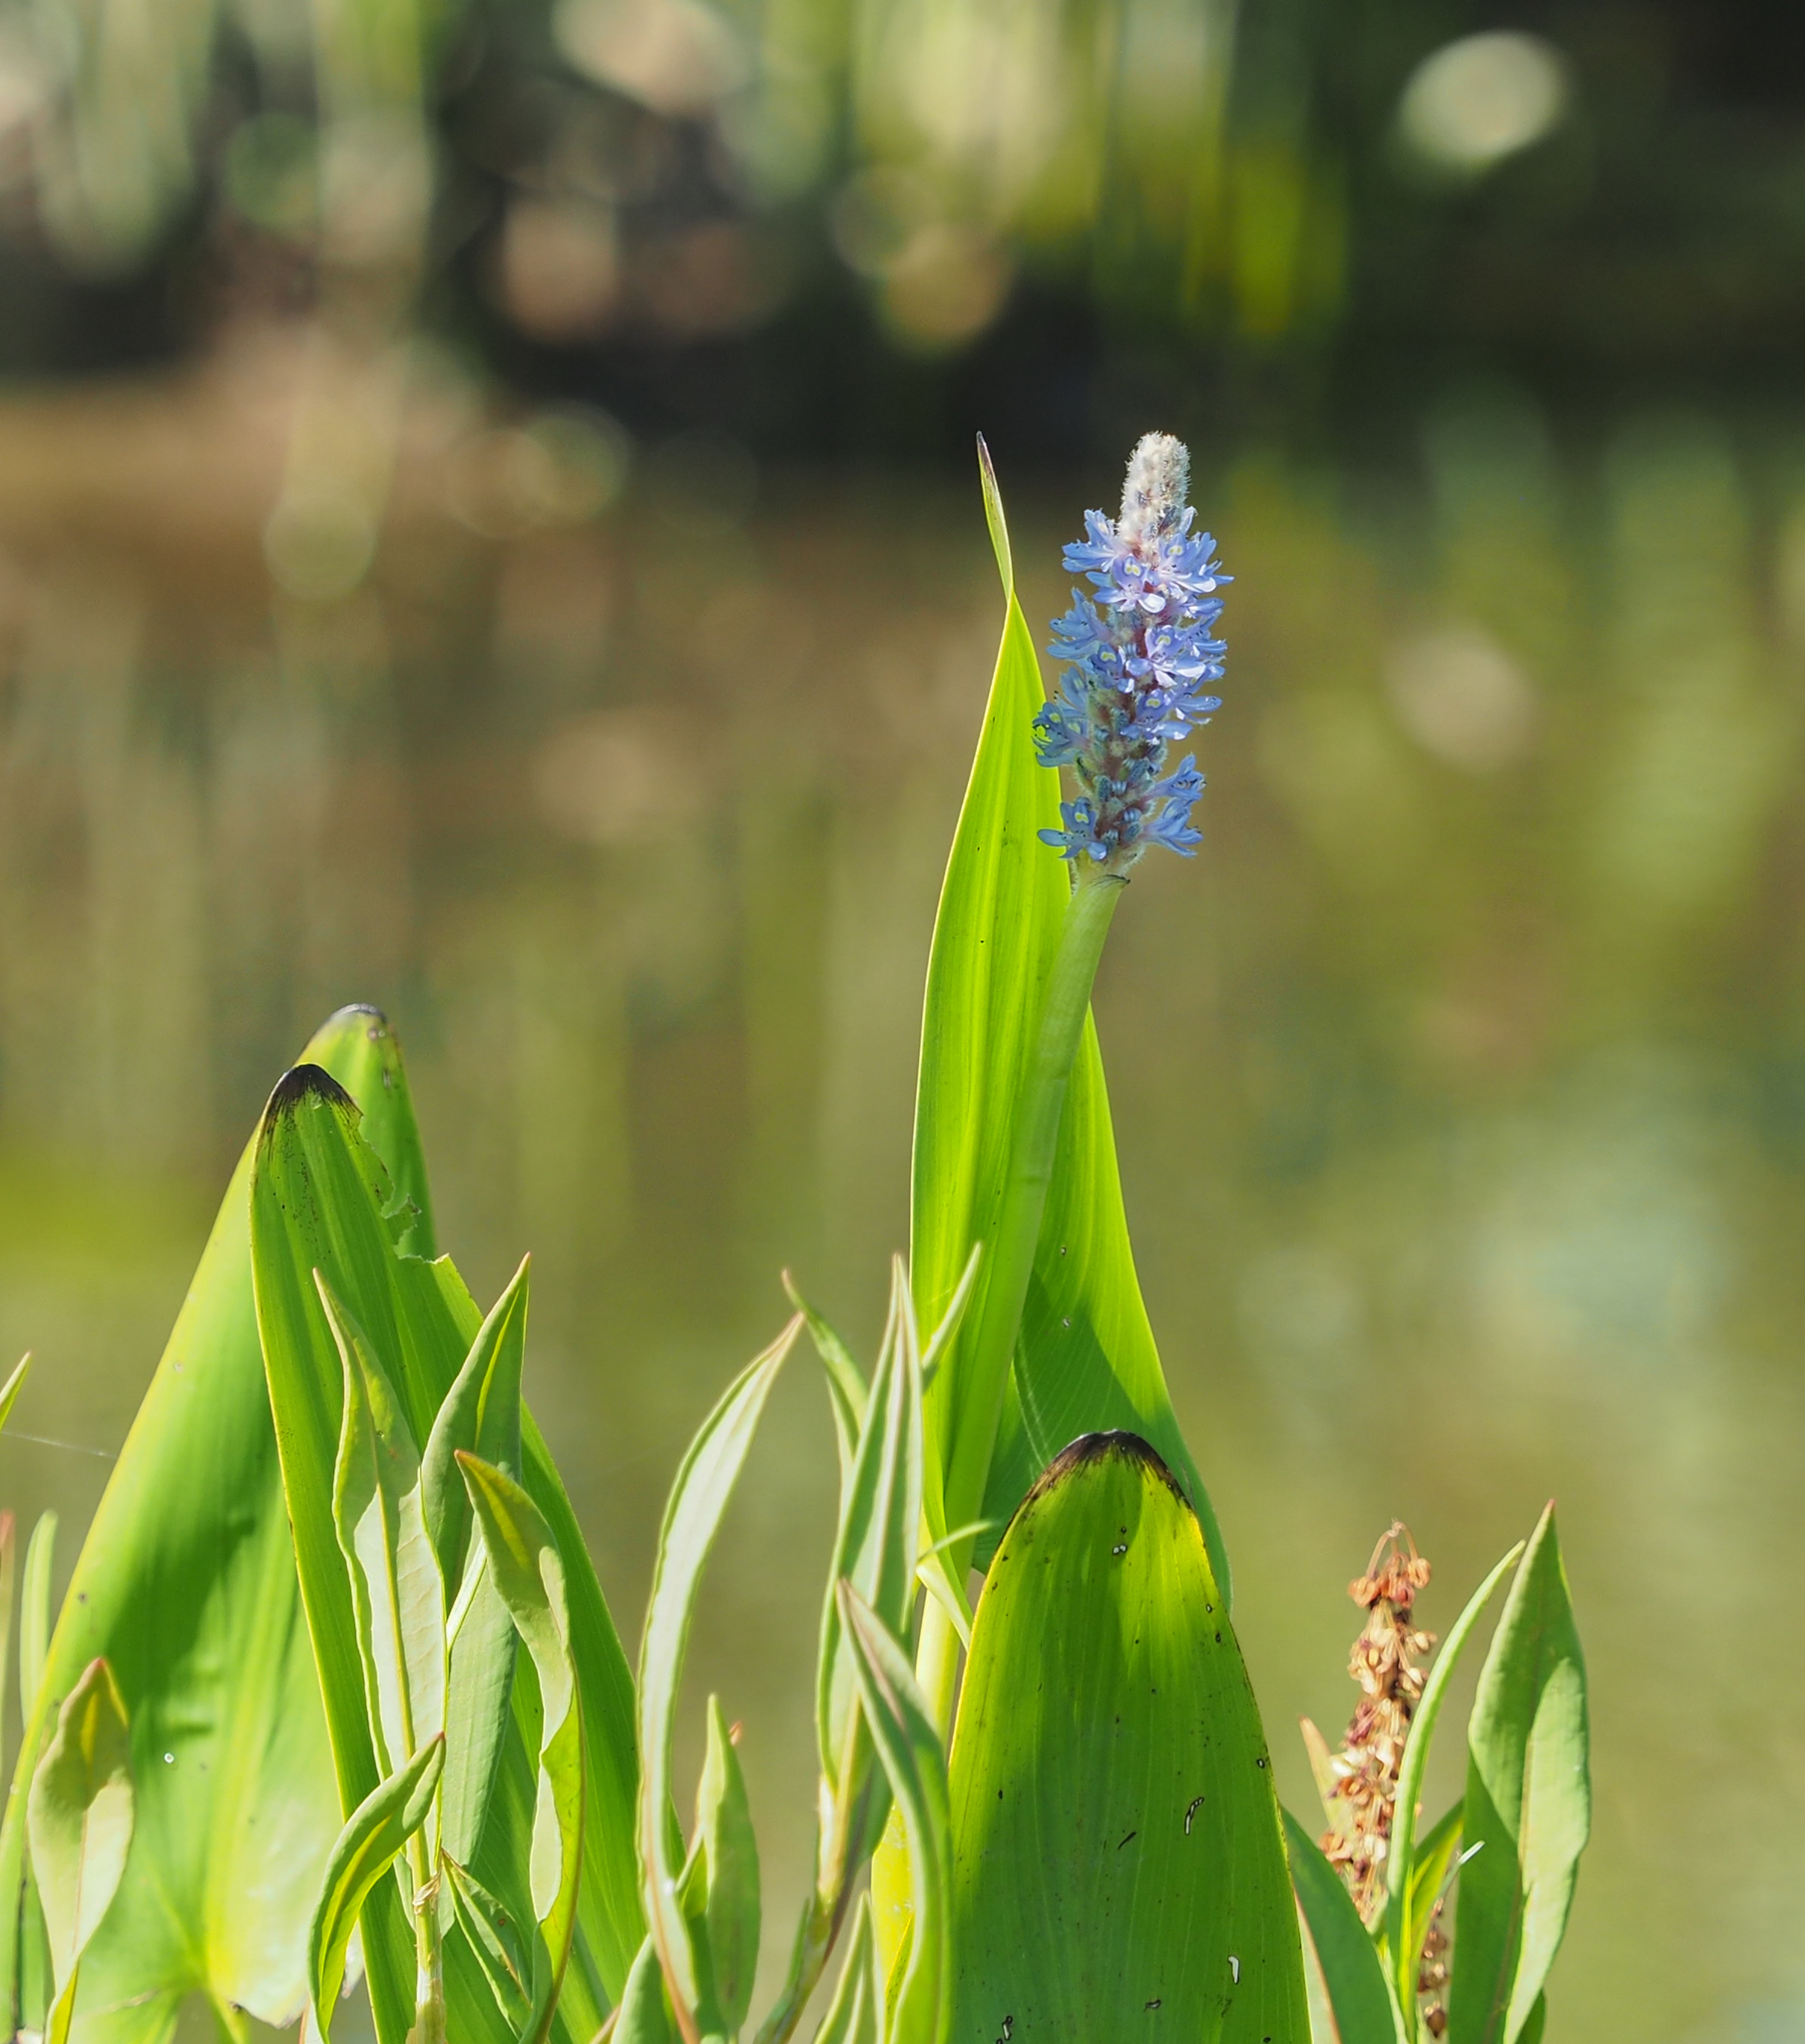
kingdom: Plantae
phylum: Tracheophyta
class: Liliopsida
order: Commelinales
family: Pontederiaceae
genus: Pontederia
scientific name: Pontederia cordata
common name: Pickerelweed
